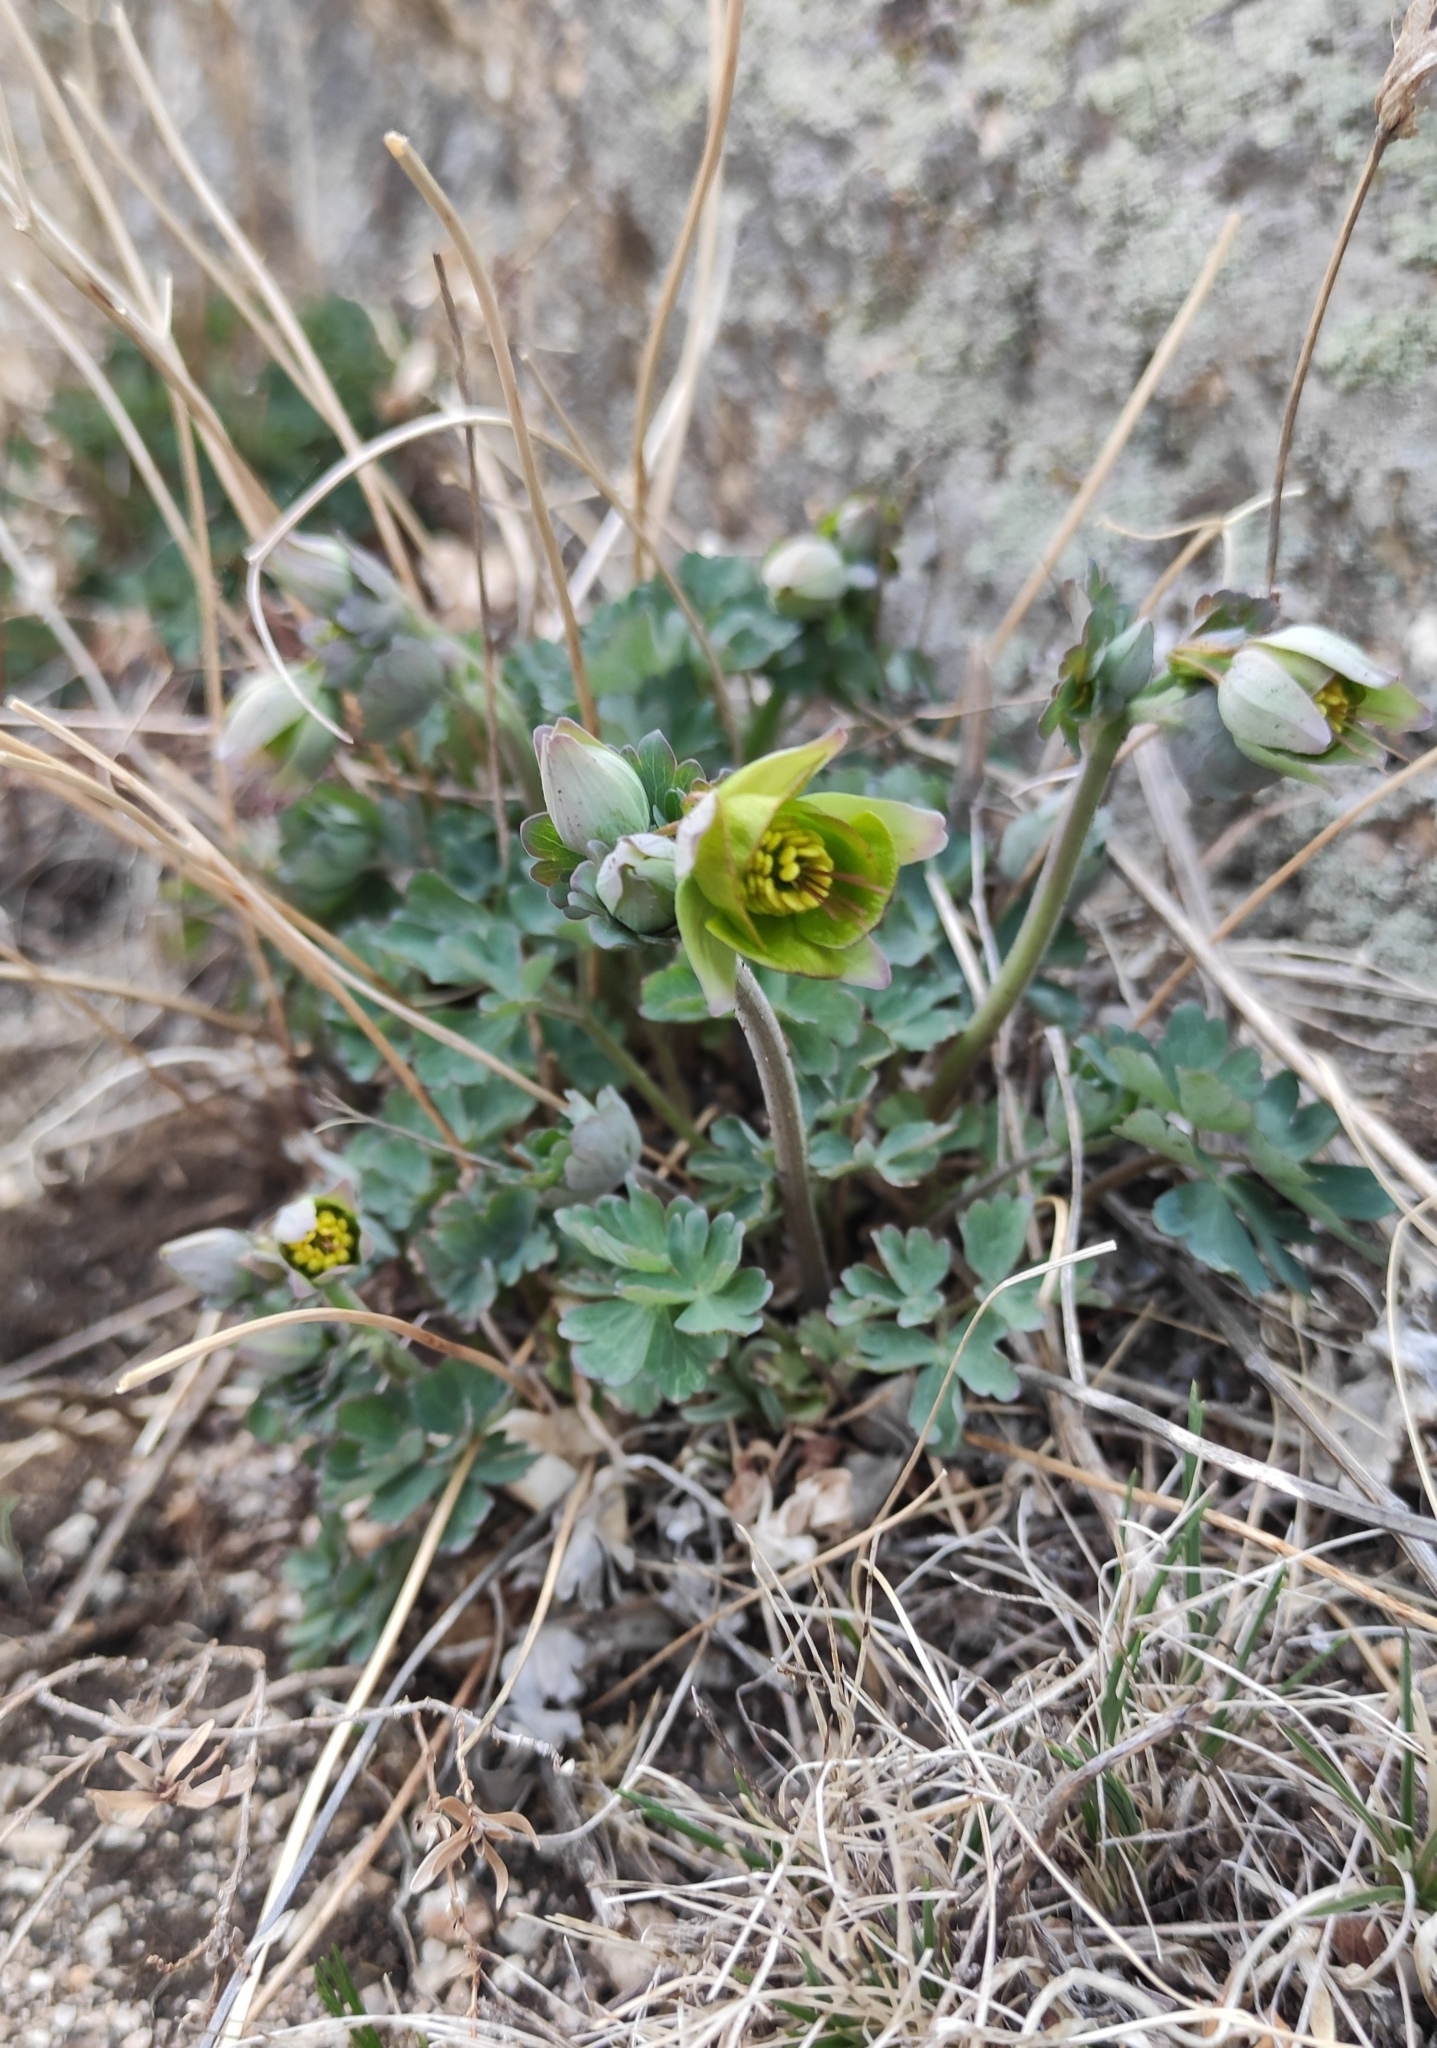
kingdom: Plantae
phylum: Tracheophyta
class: Magnoliopsida
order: Ranunculales
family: Ranunculaceae
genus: Aquilegia
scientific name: Aquilegia viridiflora
